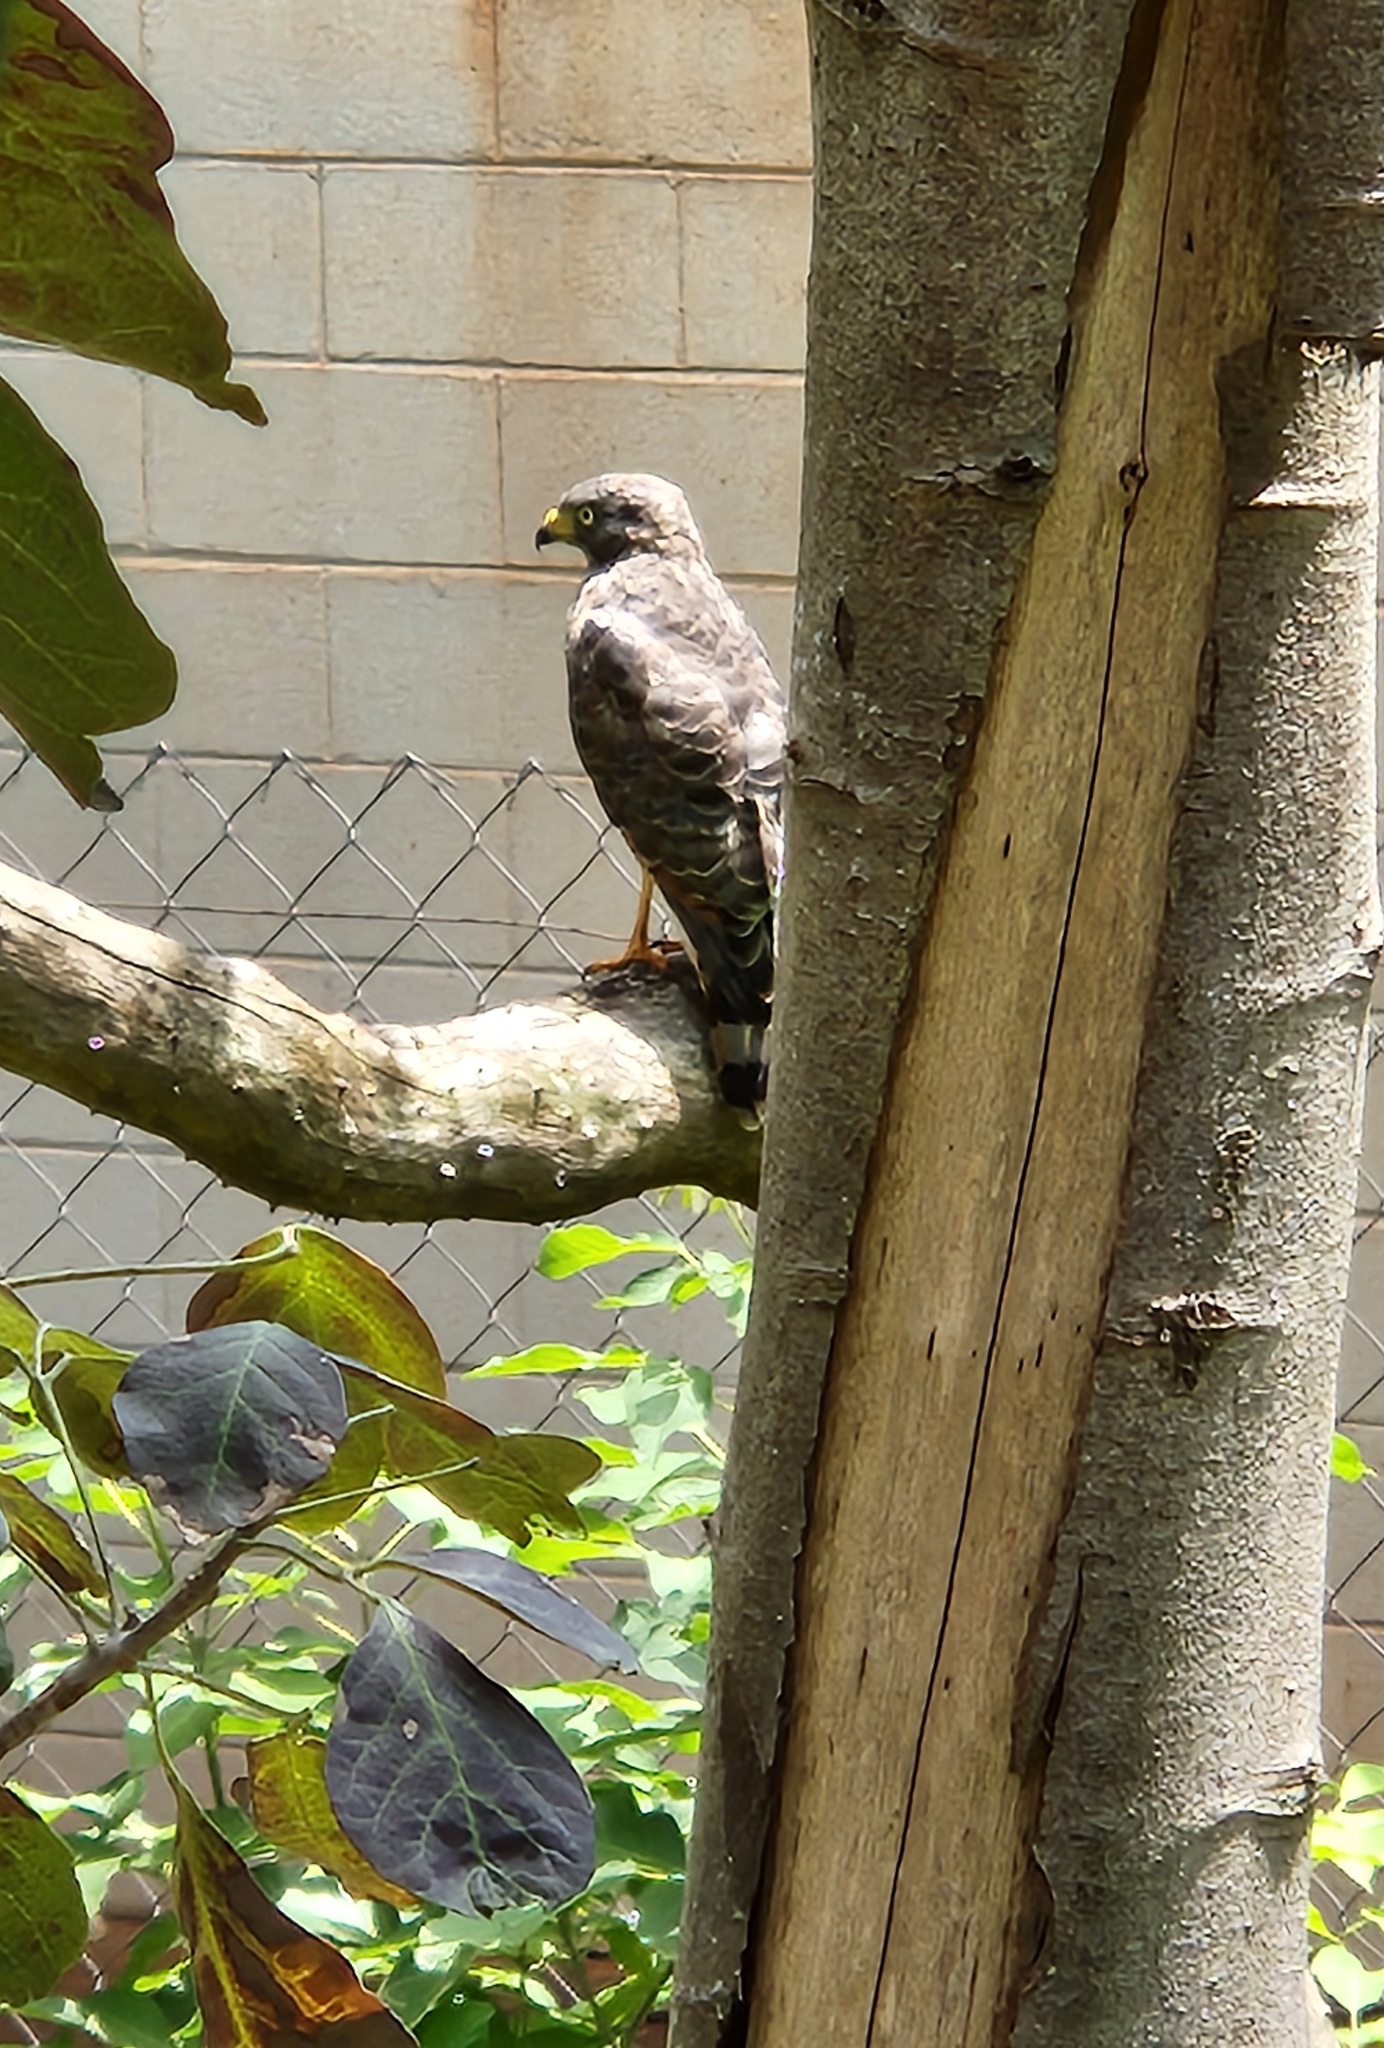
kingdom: Animalia
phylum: Chordata
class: Aves
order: Accipitriformes
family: Accipitridae
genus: Rupornis
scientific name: Rupornis magnirostris
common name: Roadside hawk
